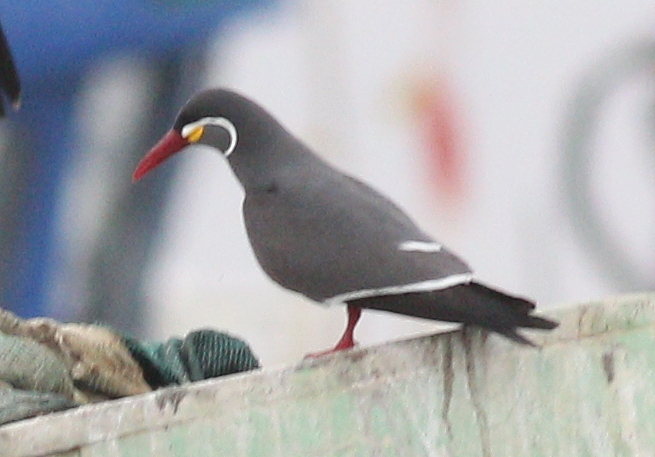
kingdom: Animalia
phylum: Chordata
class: Aves
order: Charadriiformes
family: Laridae
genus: Larosterna
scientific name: Larosterna inca
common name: Inca tern
